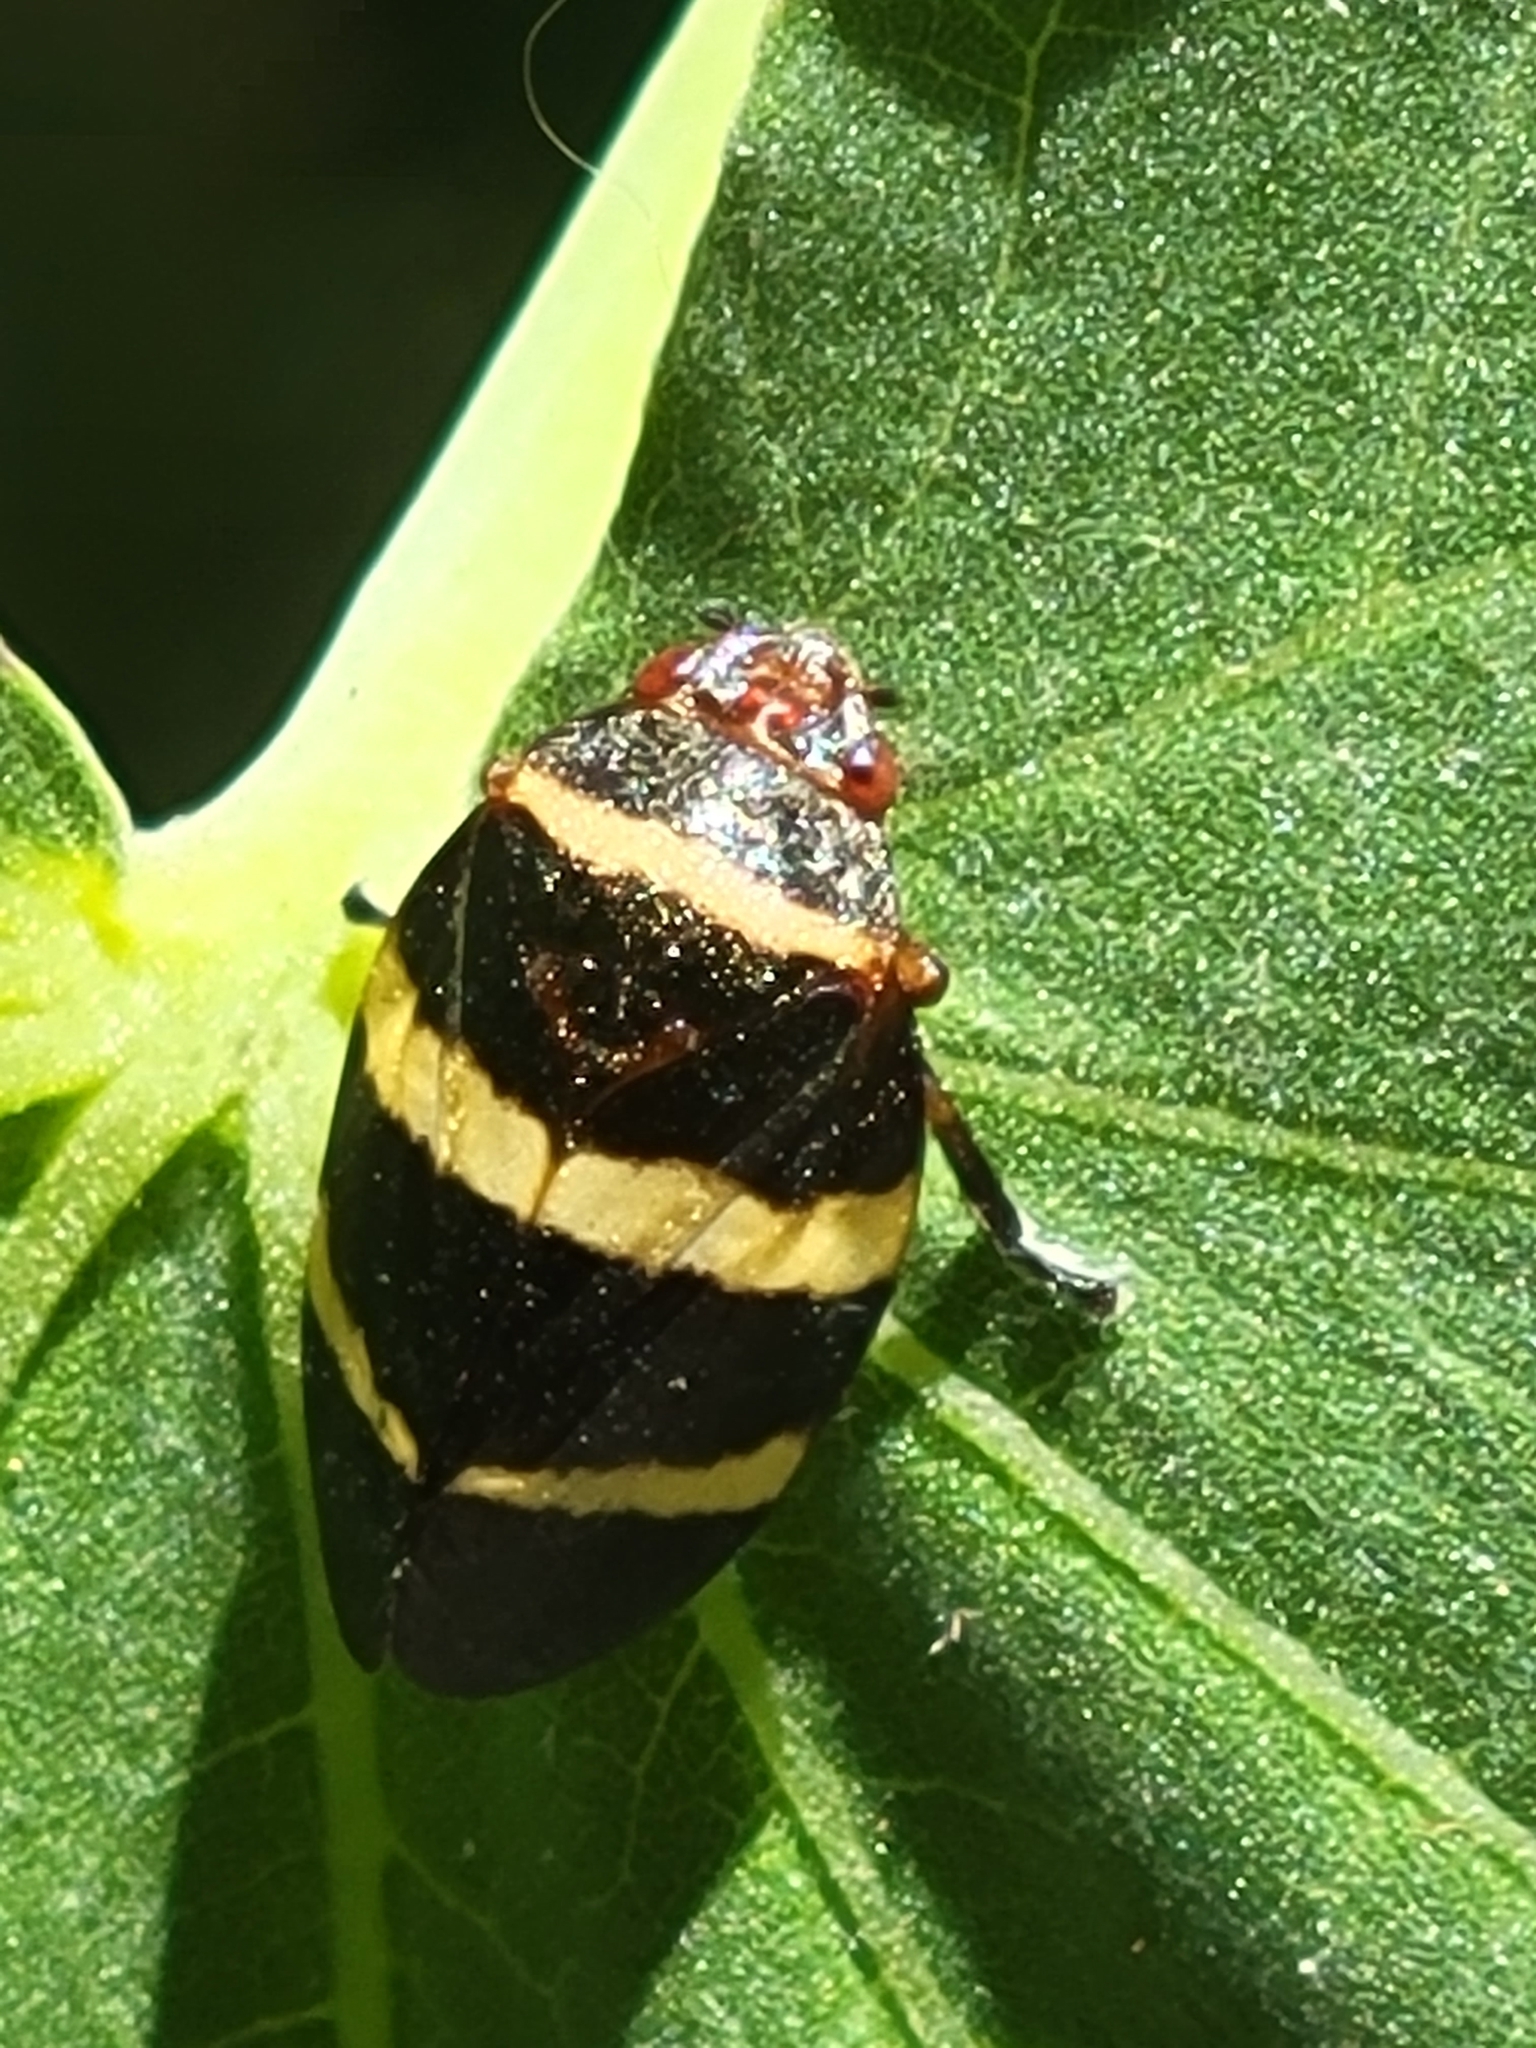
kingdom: Animalia
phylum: Arthropoda
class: Insecta
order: Hemiptera
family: Cercopidae
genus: Prosapia
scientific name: Prosapia simulans
